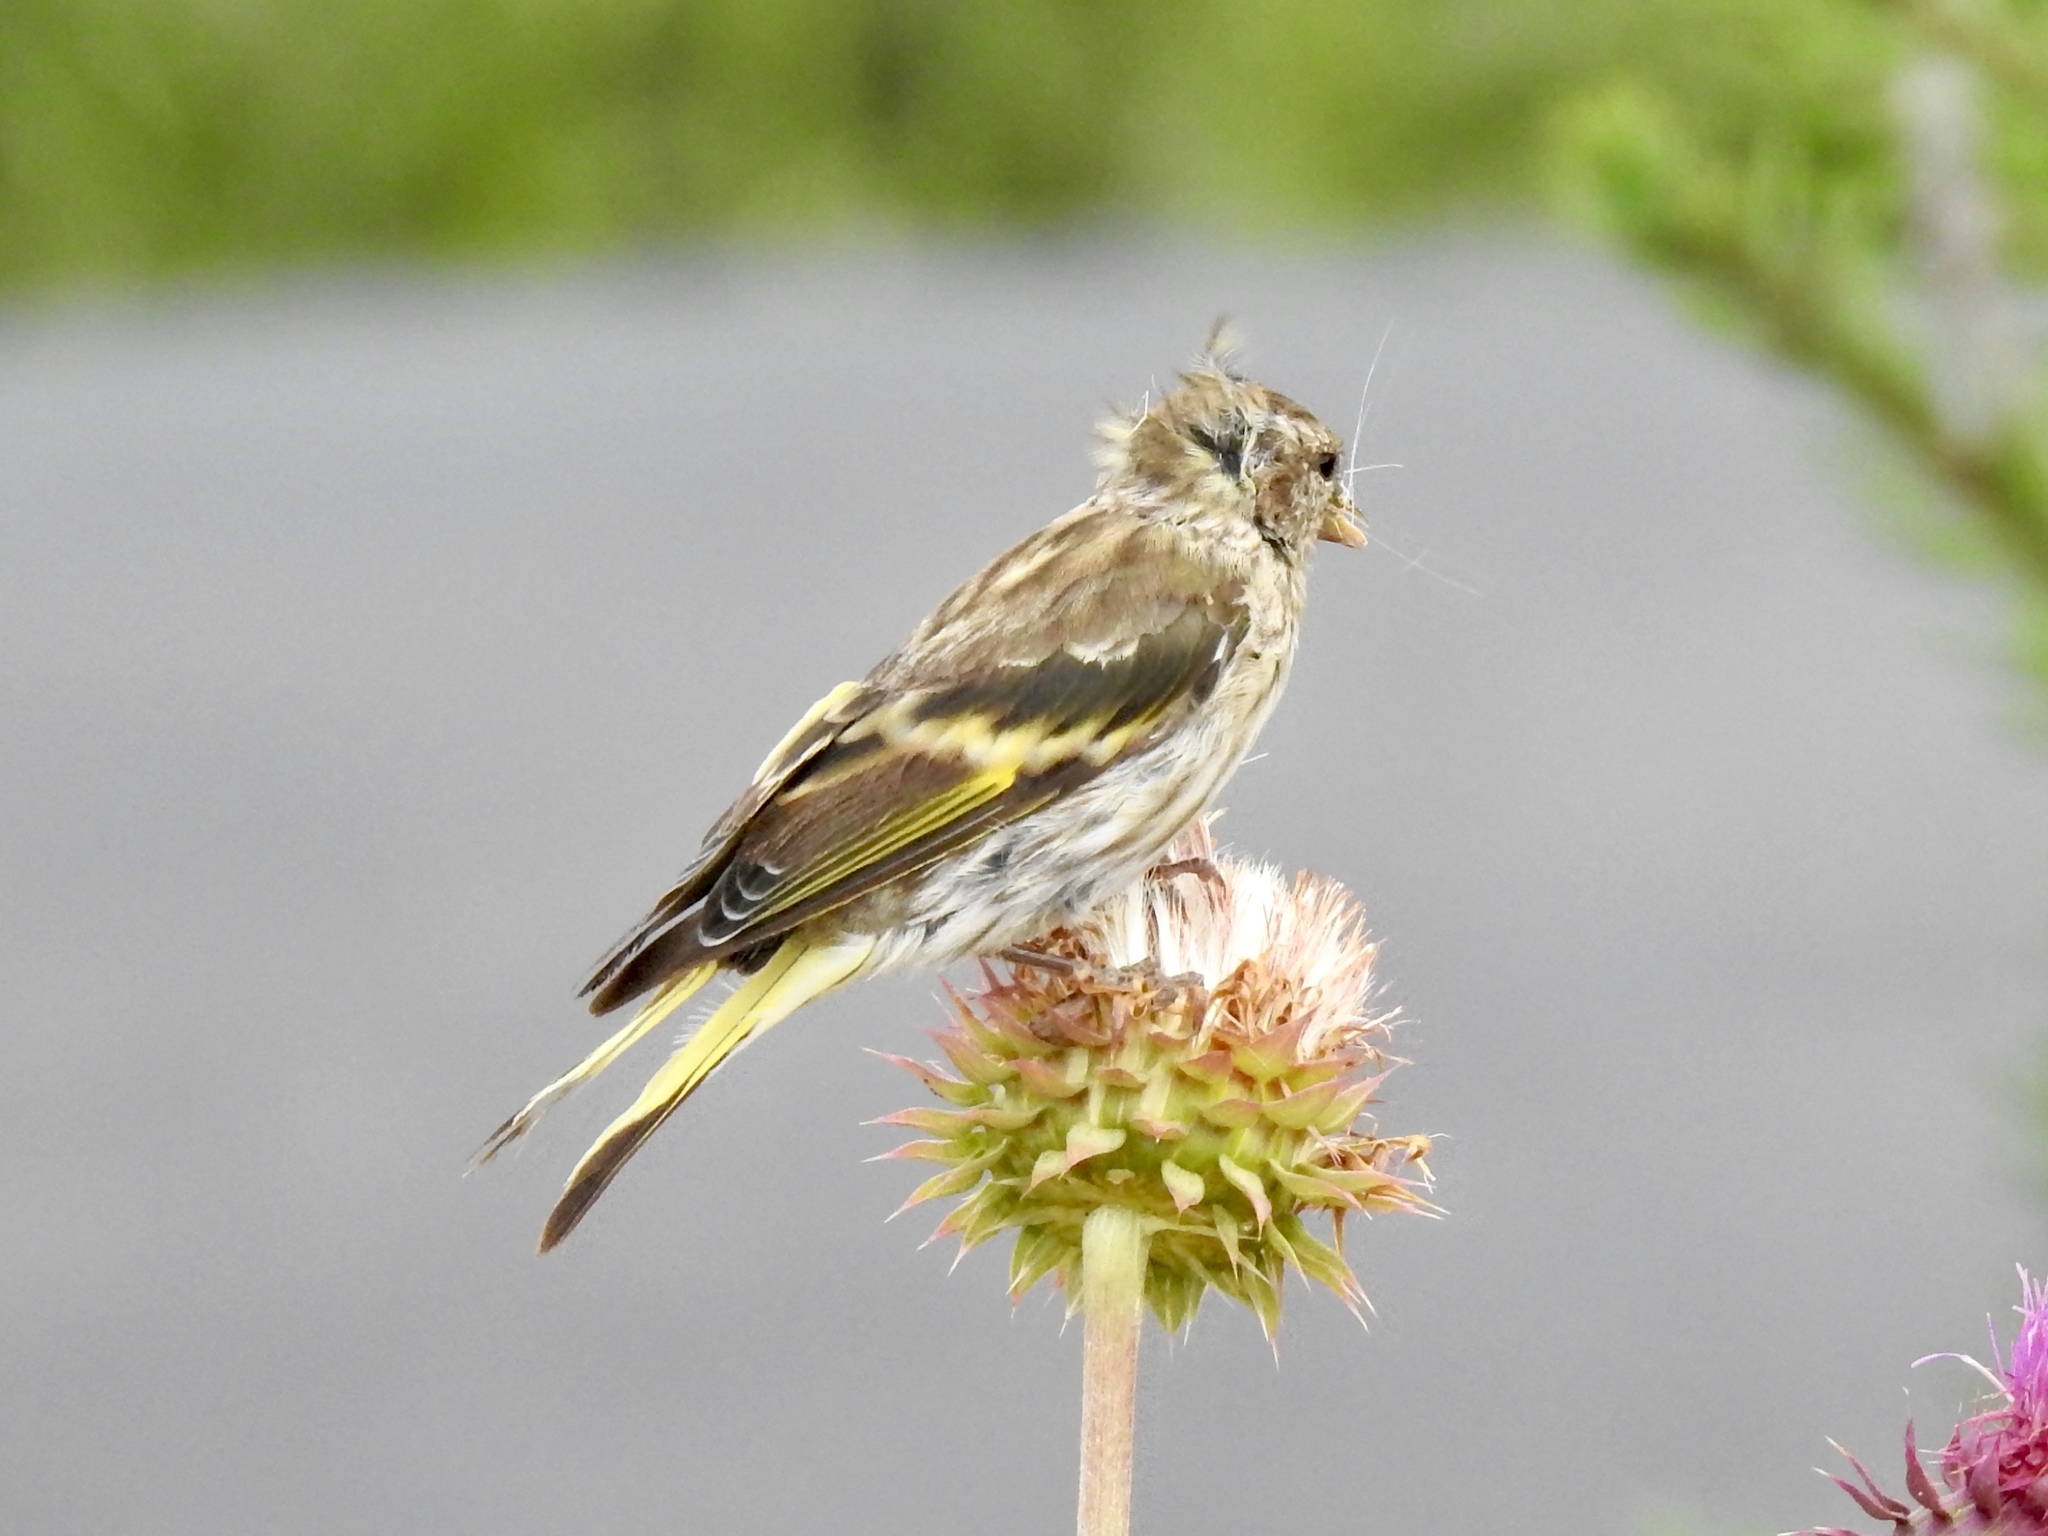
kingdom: Animalia
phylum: Chordata
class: Aves
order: Passeriformes
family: Fringillidae
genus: Spinus
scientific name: Spinus pinus
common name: Pine siskin
